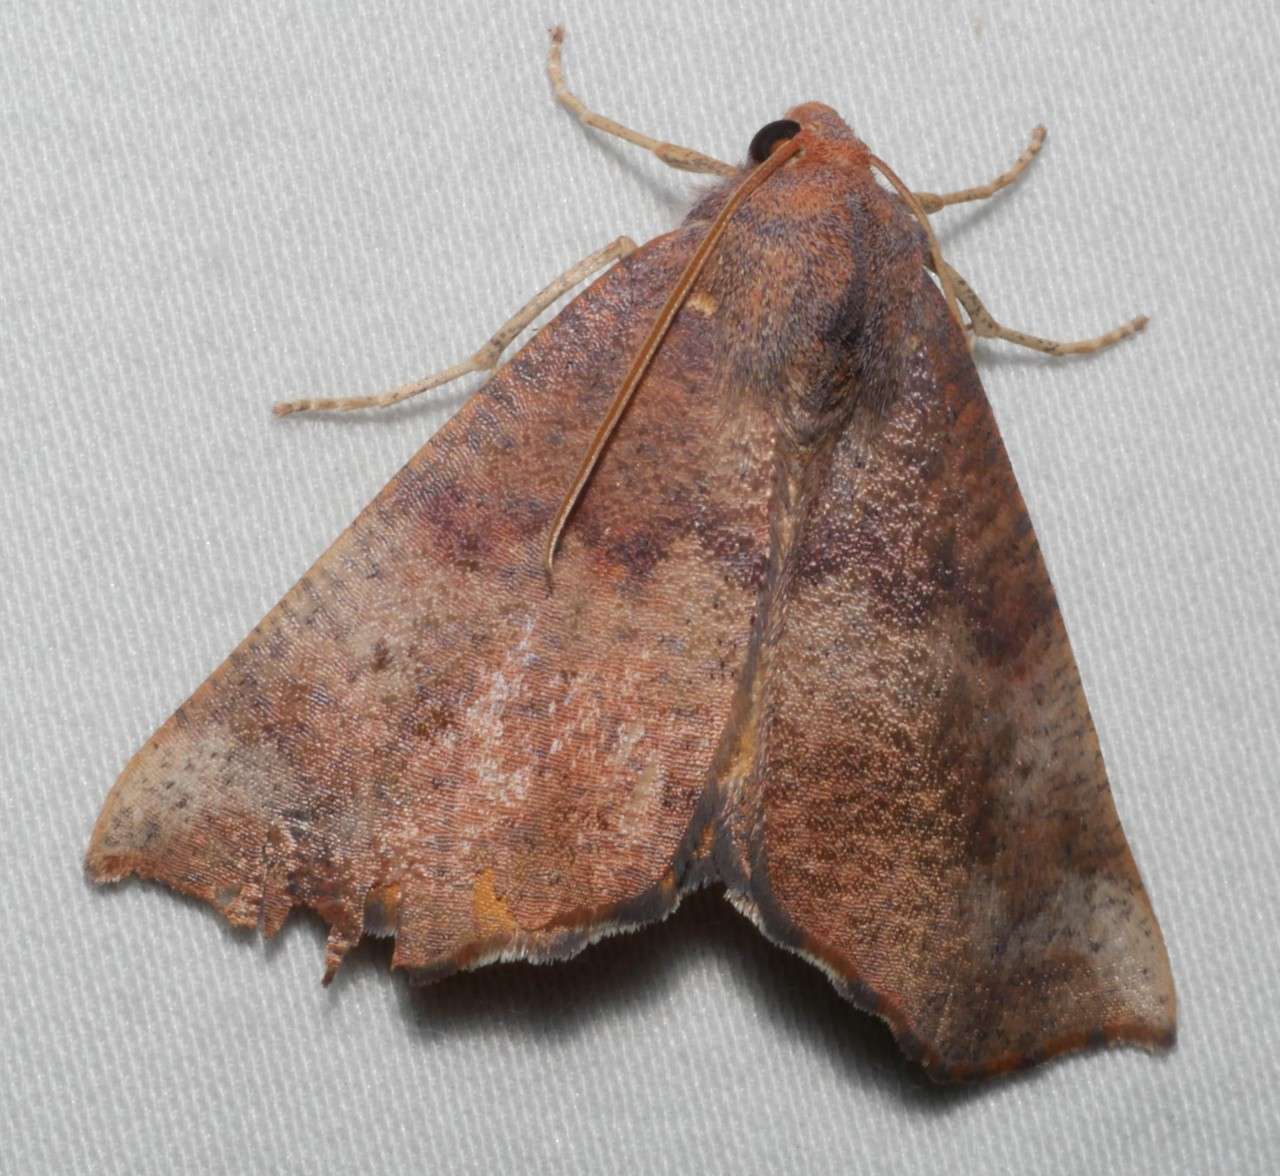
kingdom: Animalia
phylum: Arthropoda
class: Insecta
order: Lepidoptera
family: Geometridae
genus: Mnesampela
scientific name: Mnesampela privata
